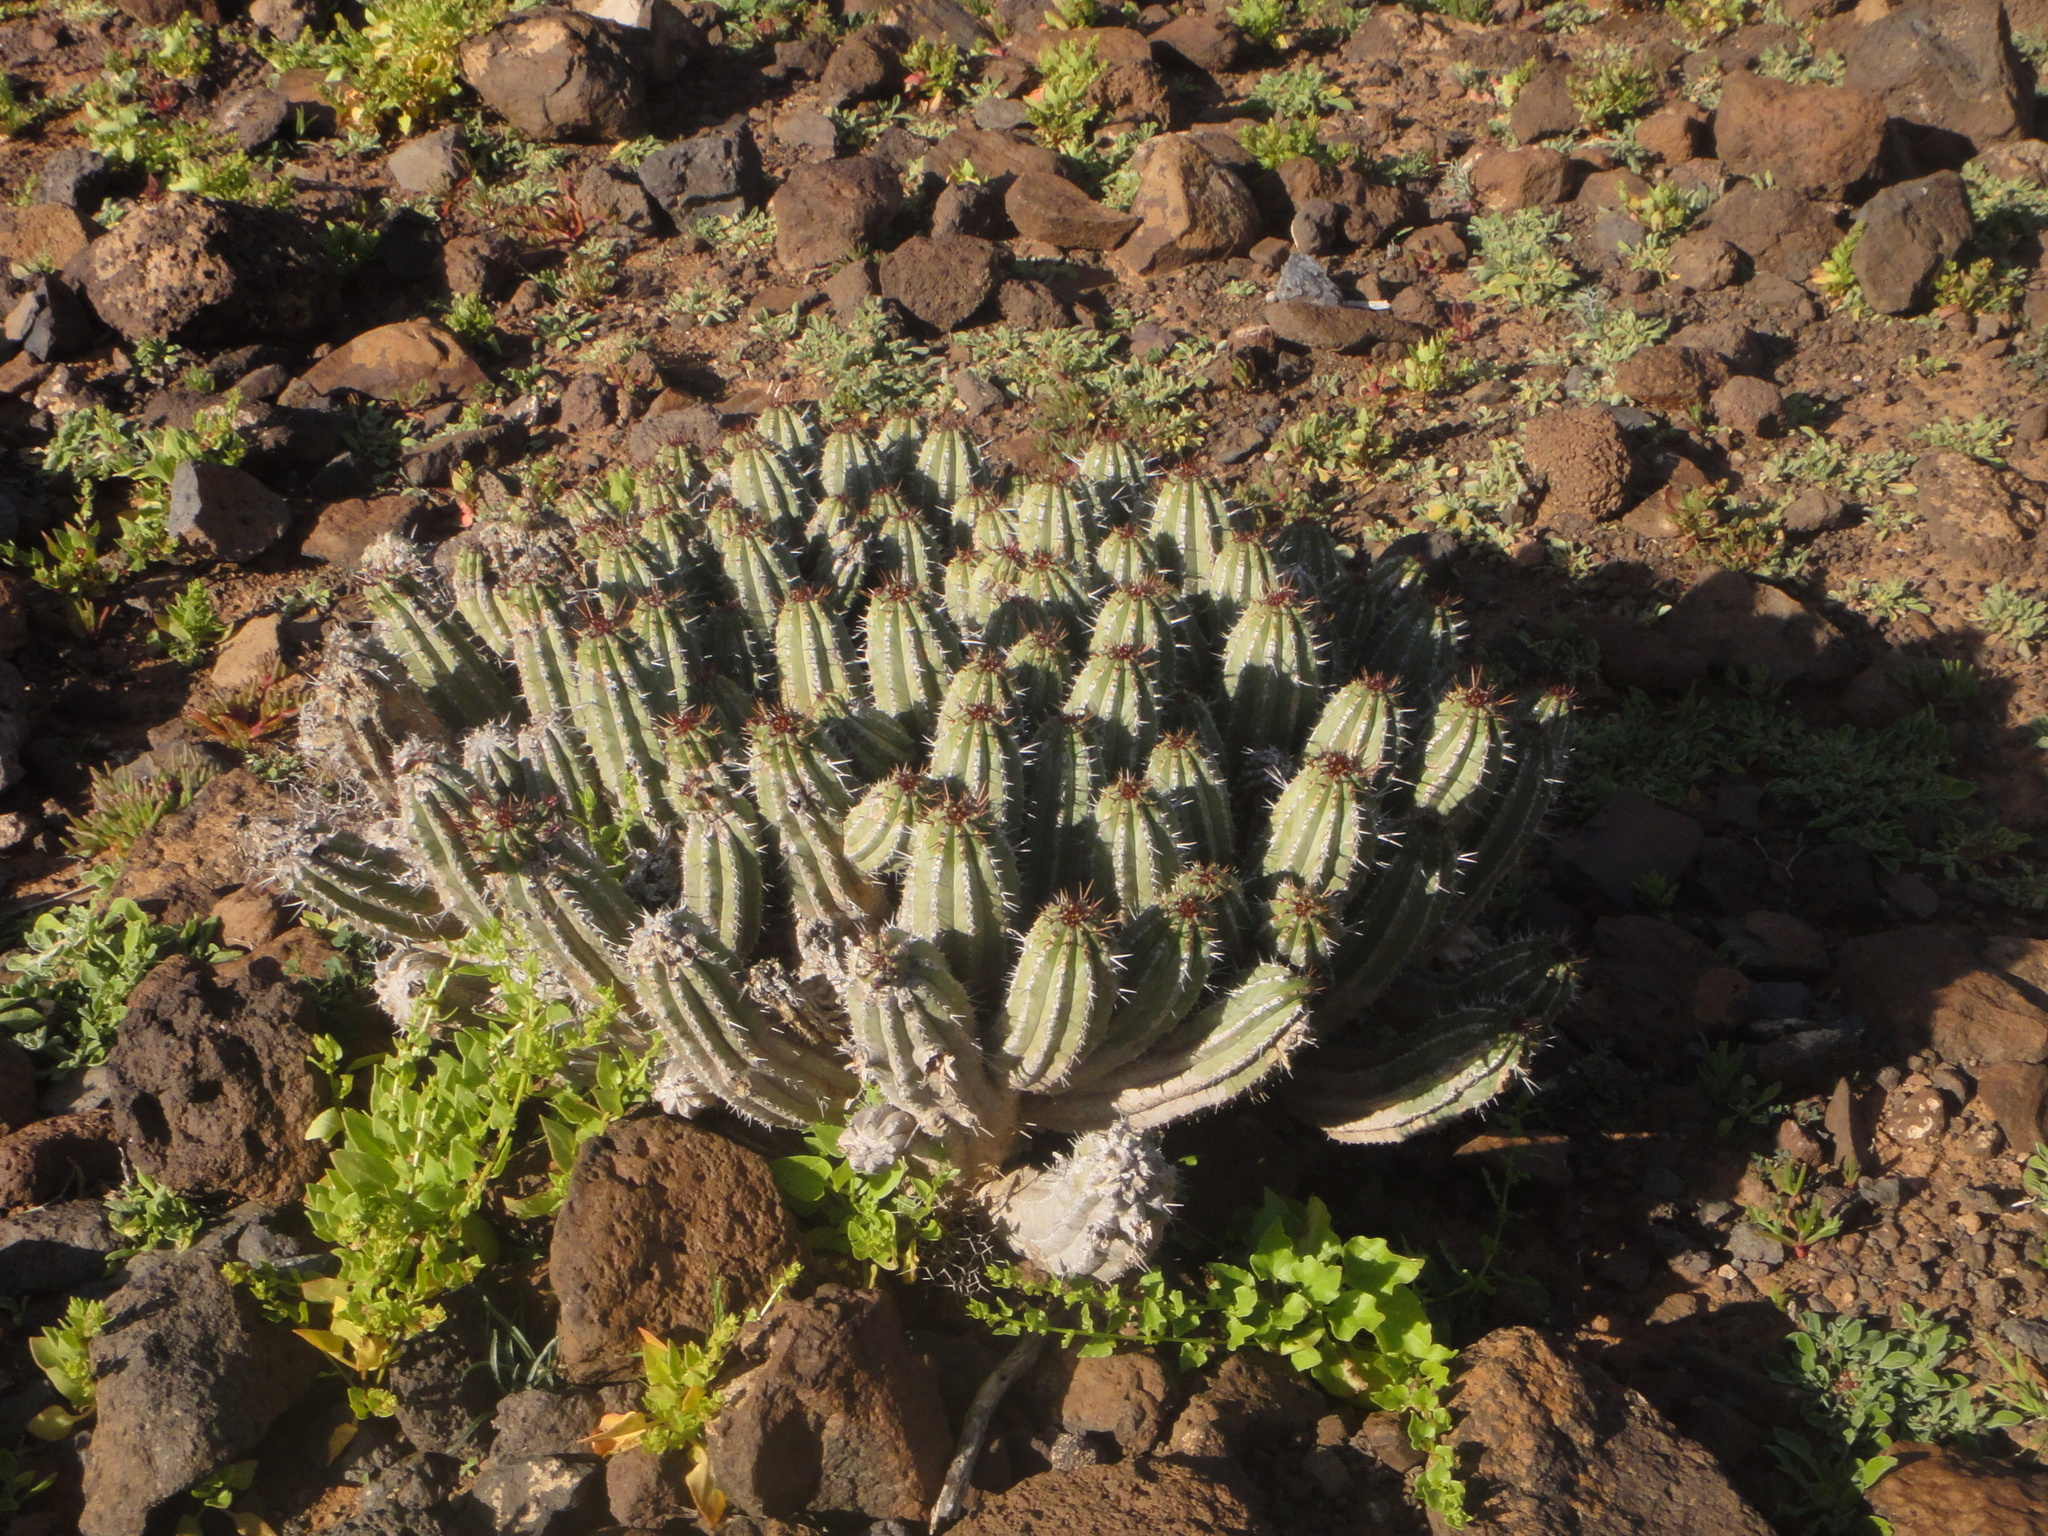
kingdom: Plantae
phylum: Tracheophyta
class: Magnoliopsida
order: Malpighiales
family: Euphorbiaceae
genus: Euphorbia
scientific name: Euphorbia handiensis
